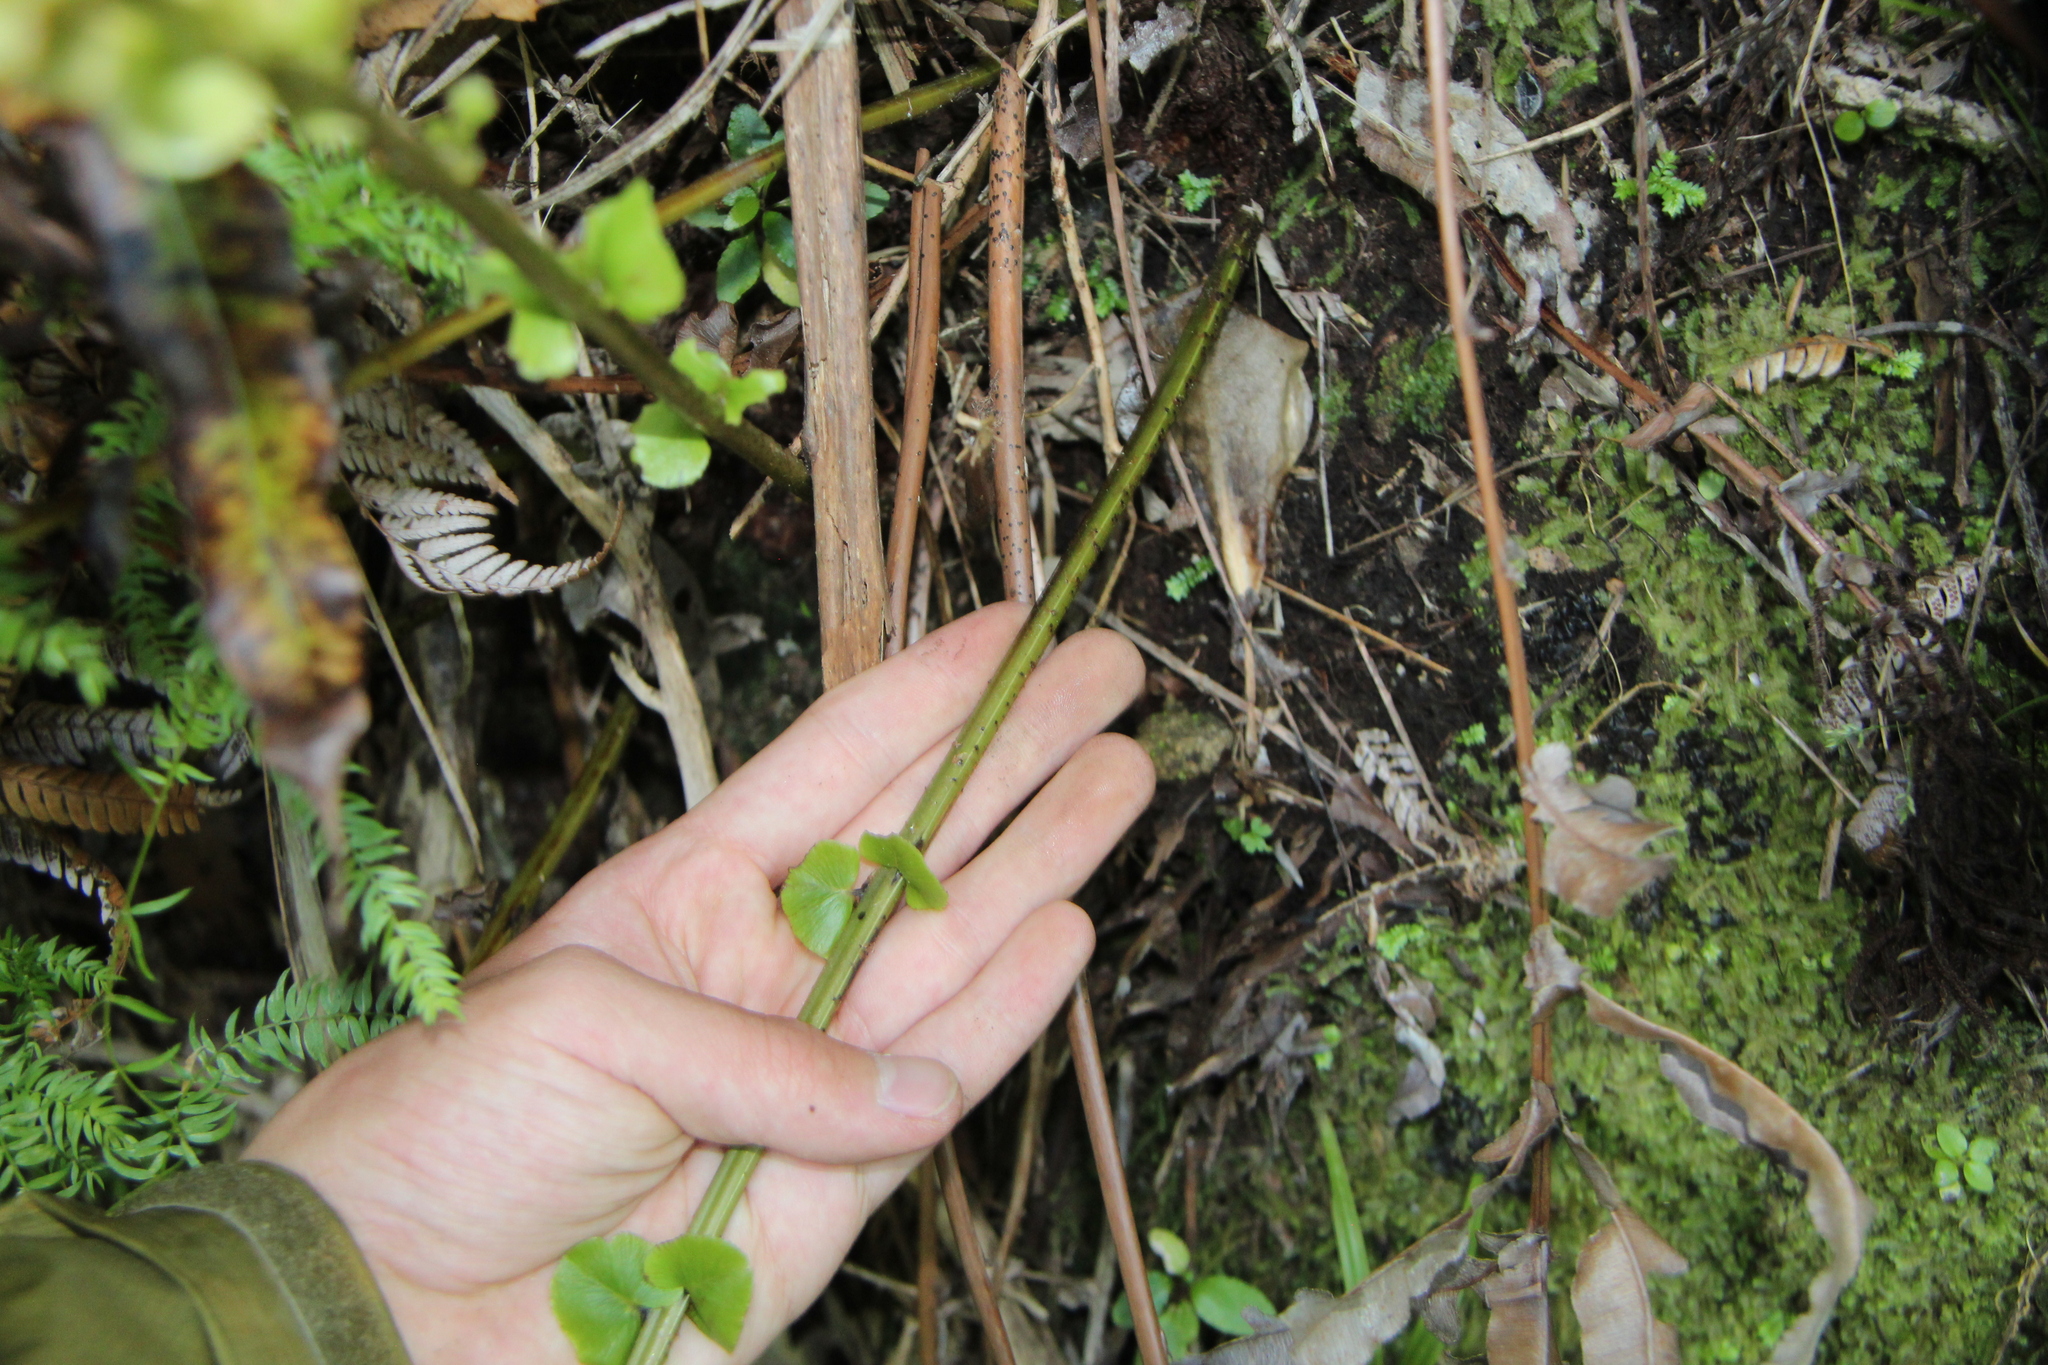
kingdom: Plantae
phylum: Tracheophyta
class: Polypodiopsida
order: Polypodiales
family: Blechnaceae
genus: Parablechnum
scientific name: Parablechnum novae-zelandiae
